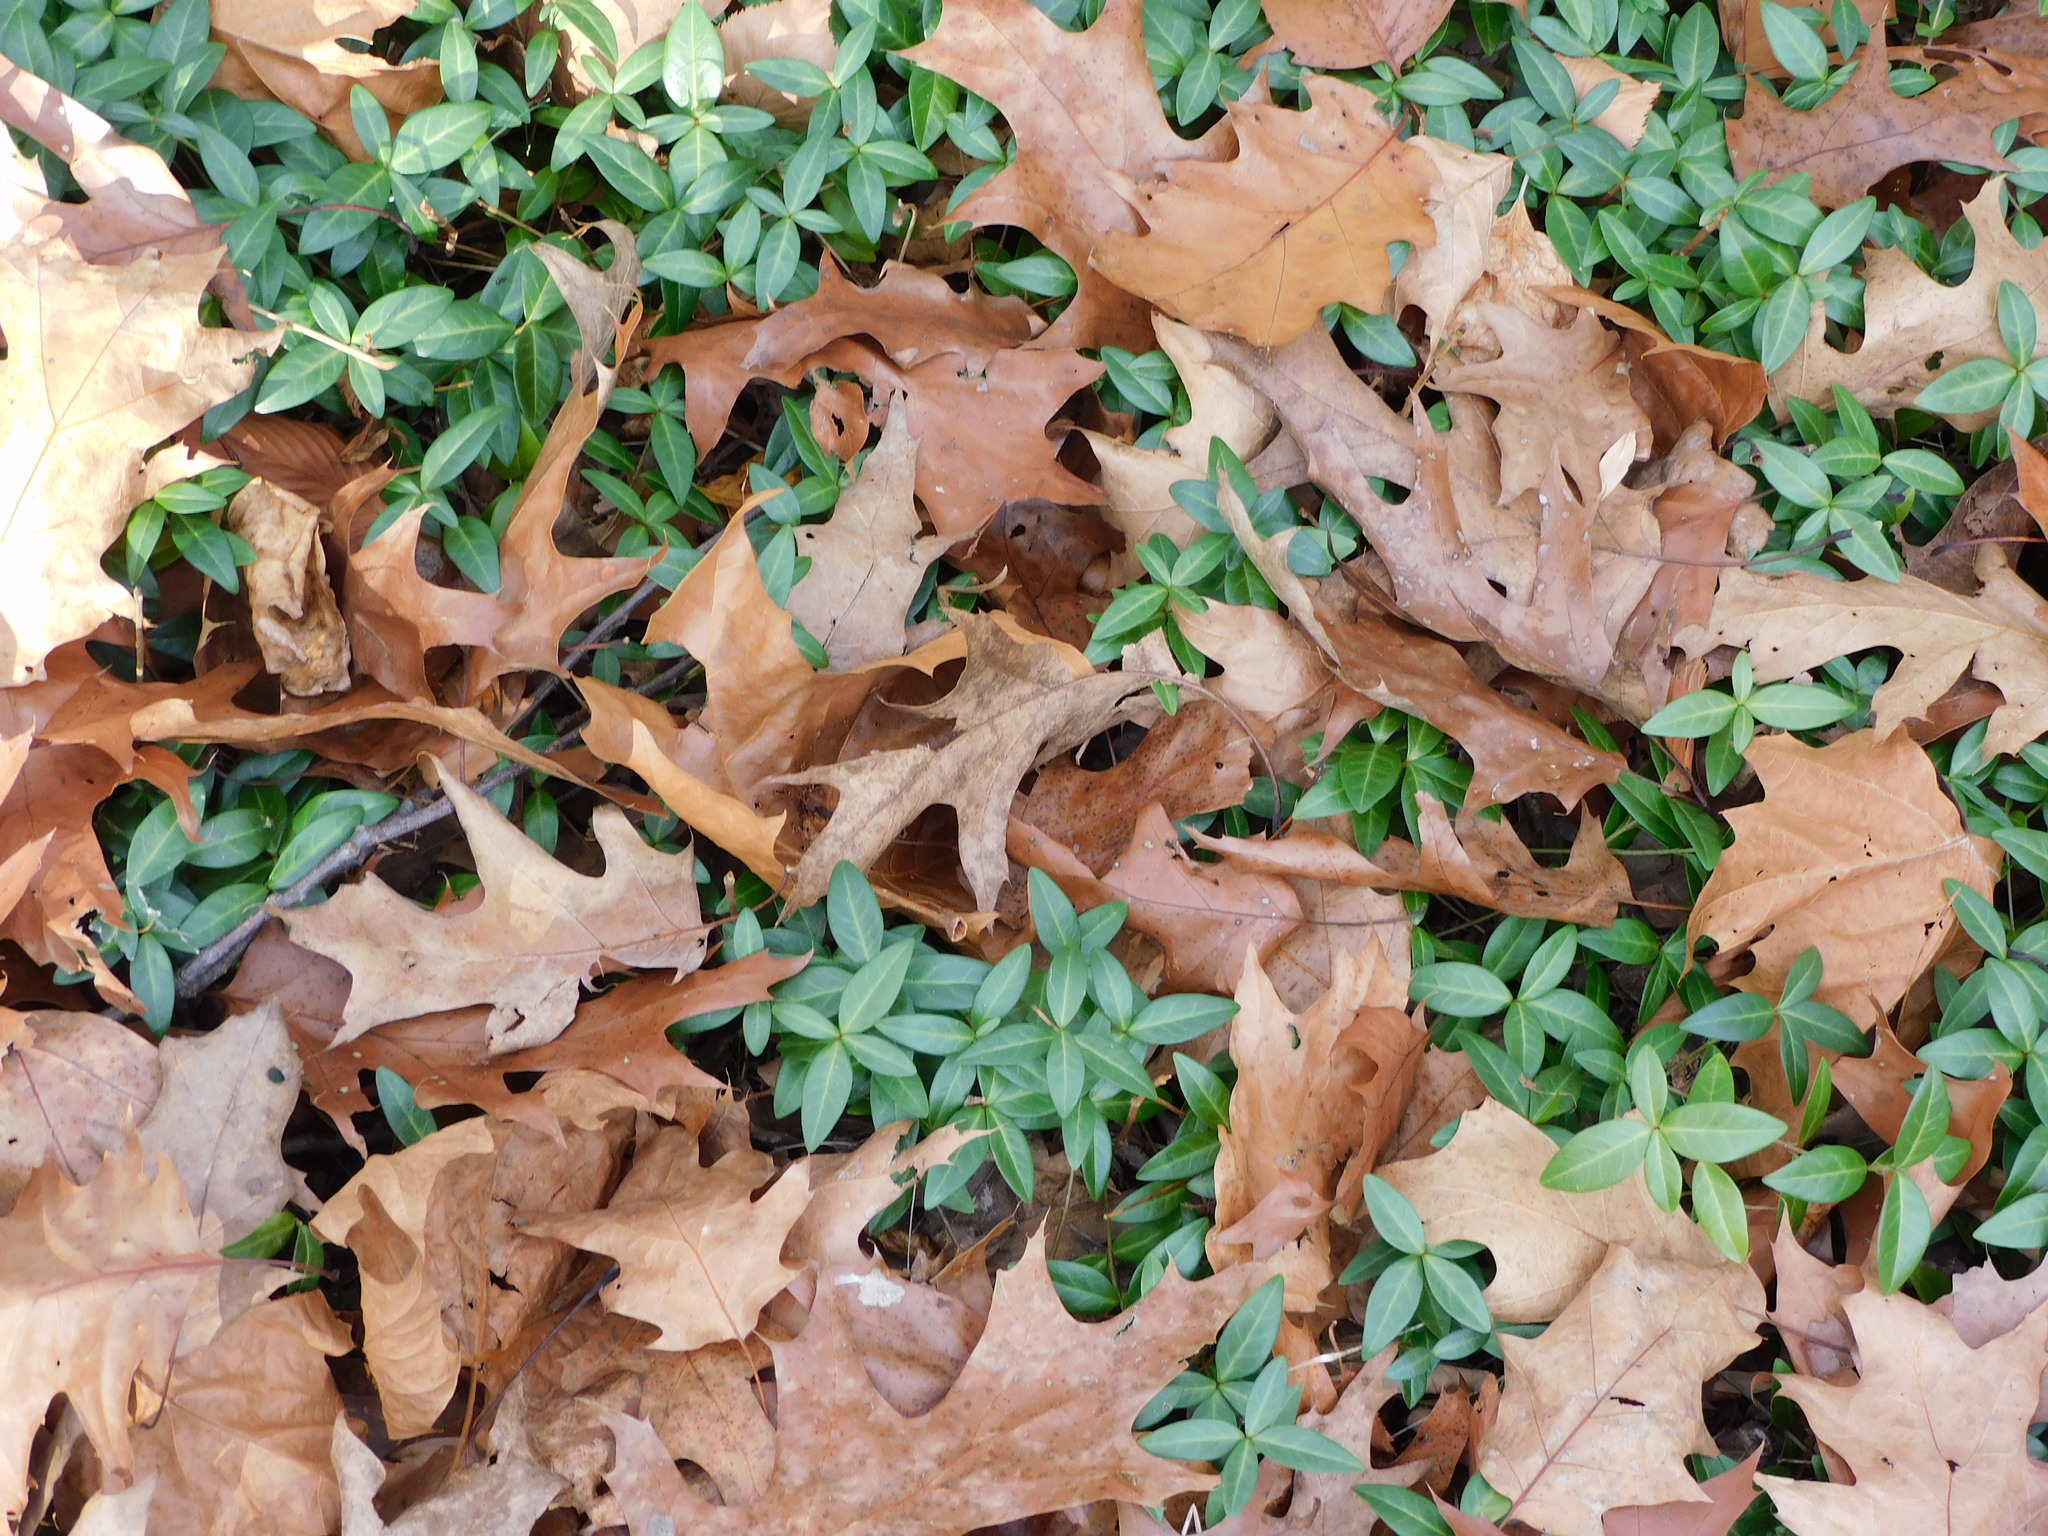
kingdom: Plantae
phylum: Tracheophyta
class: Magnoliopsida
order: Gentianales
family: Apocynaceae
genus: Vinca
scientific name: Vinca minor
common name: Lesser periwinkle
